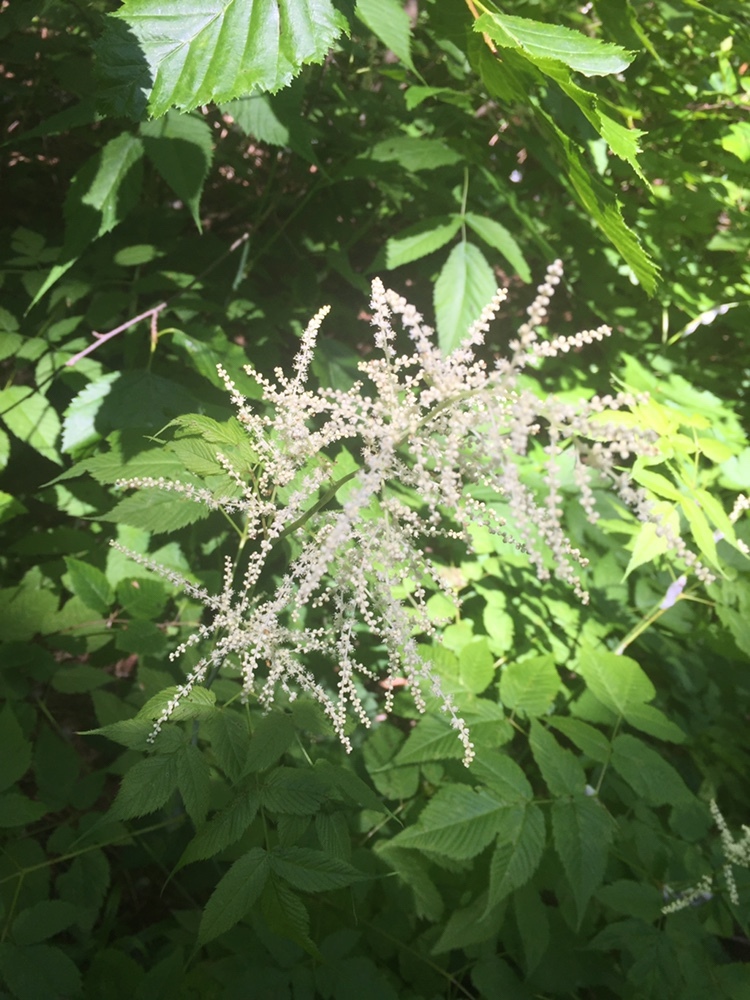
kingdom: Plantae
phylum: Tracheophyta
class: Magnoliopsida
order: Rosales
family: Rosaceae
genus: Aruncus
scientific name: Aruncus dioicus
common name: Buck's-beard
